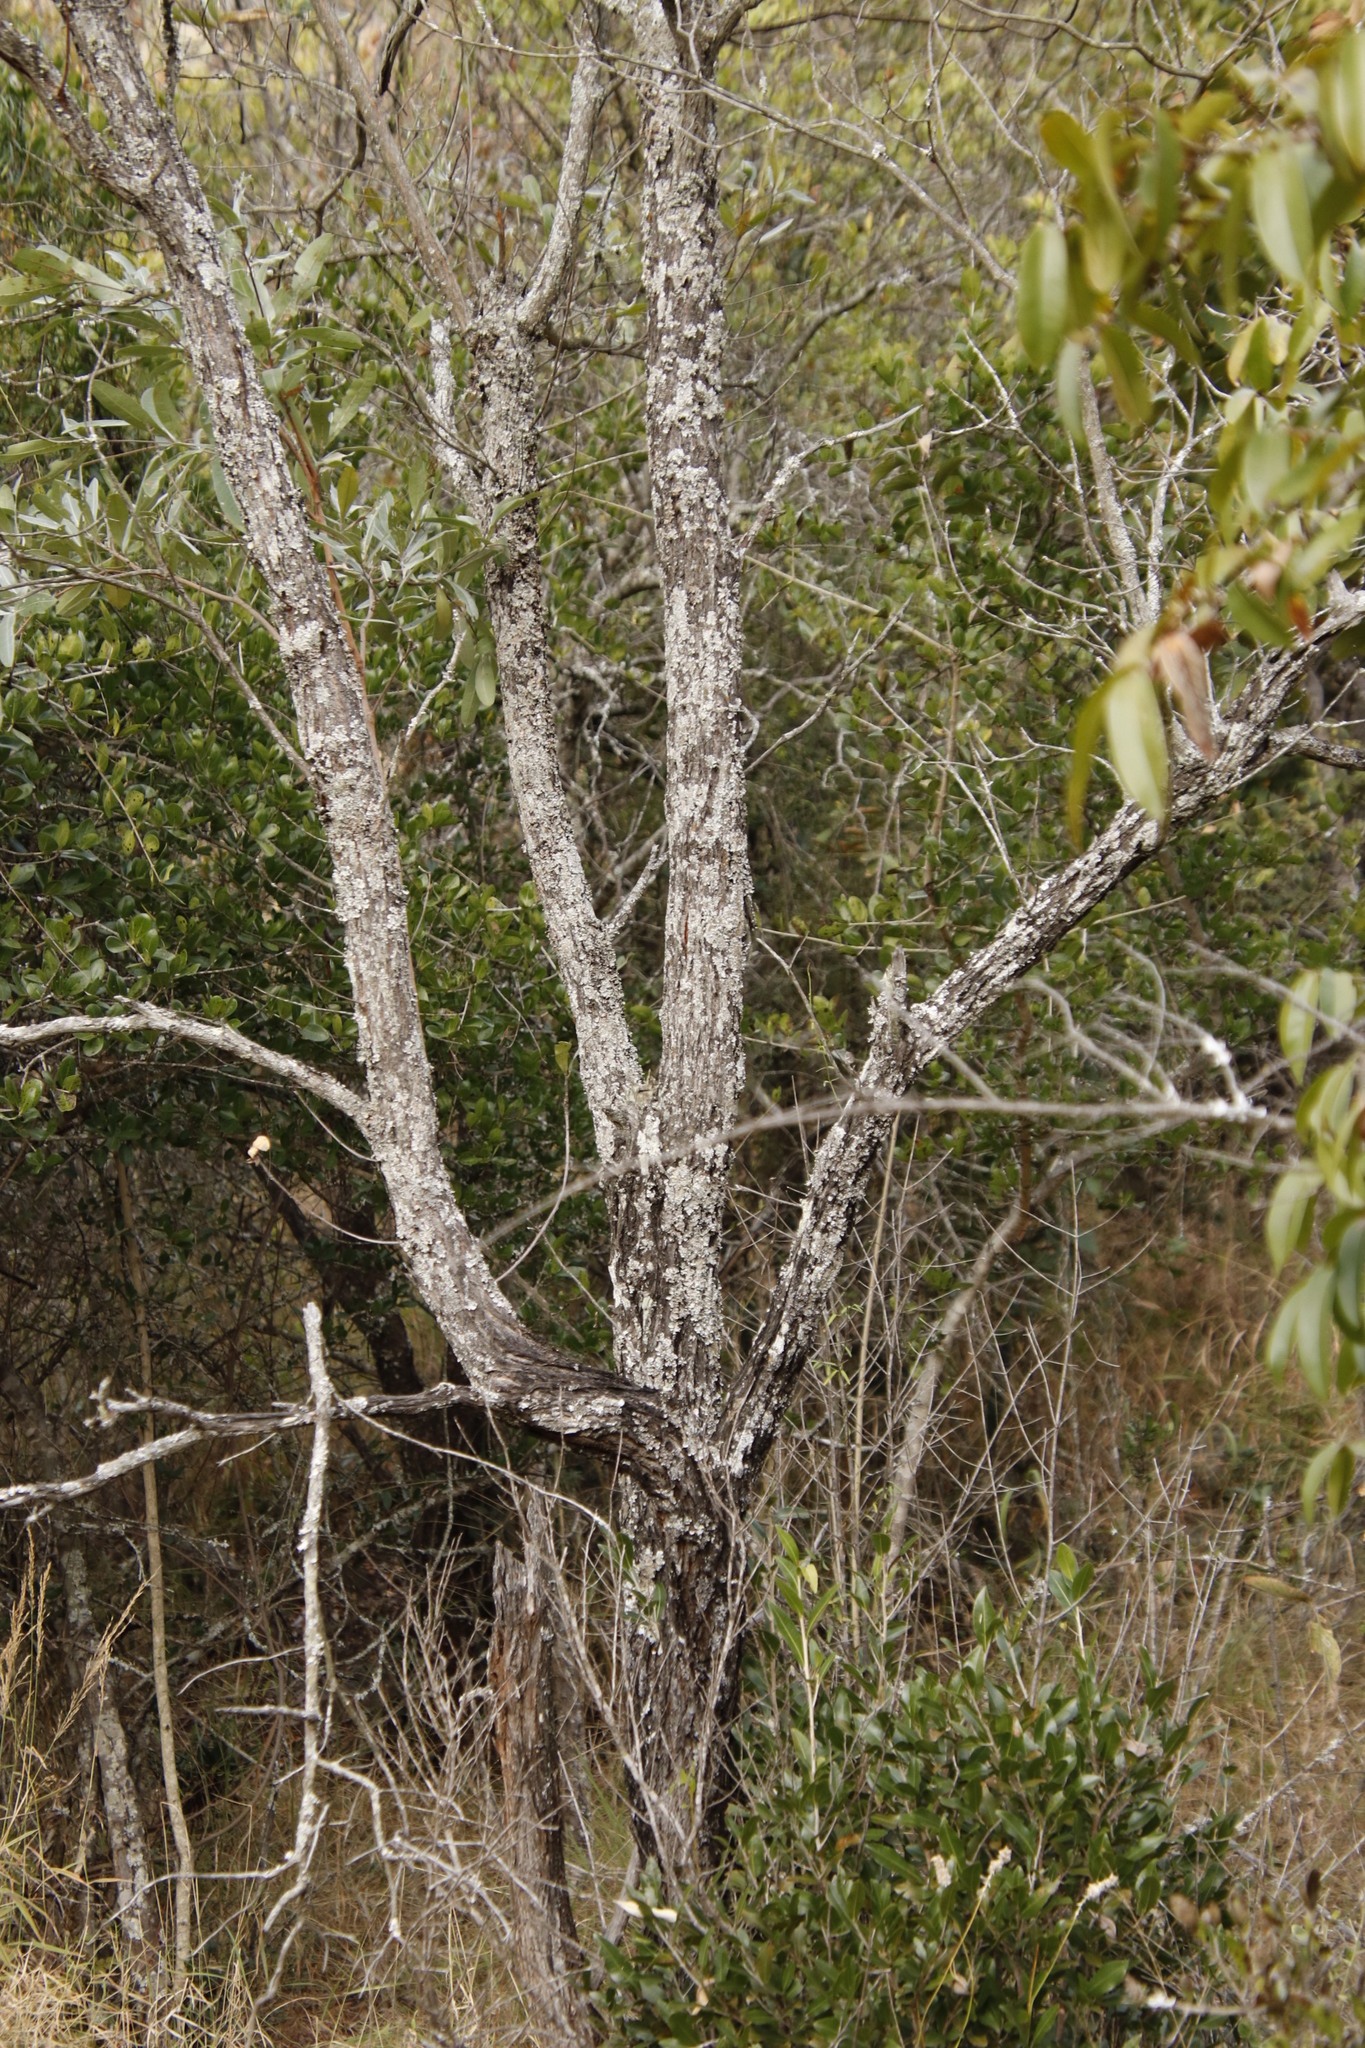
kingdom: Plantae
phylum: Tracheophyta
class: Magnoliopsida
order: Myrtales
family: Combretaceae
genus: Terminalia
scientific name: Terminalia sericea
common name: Clusterleaf
